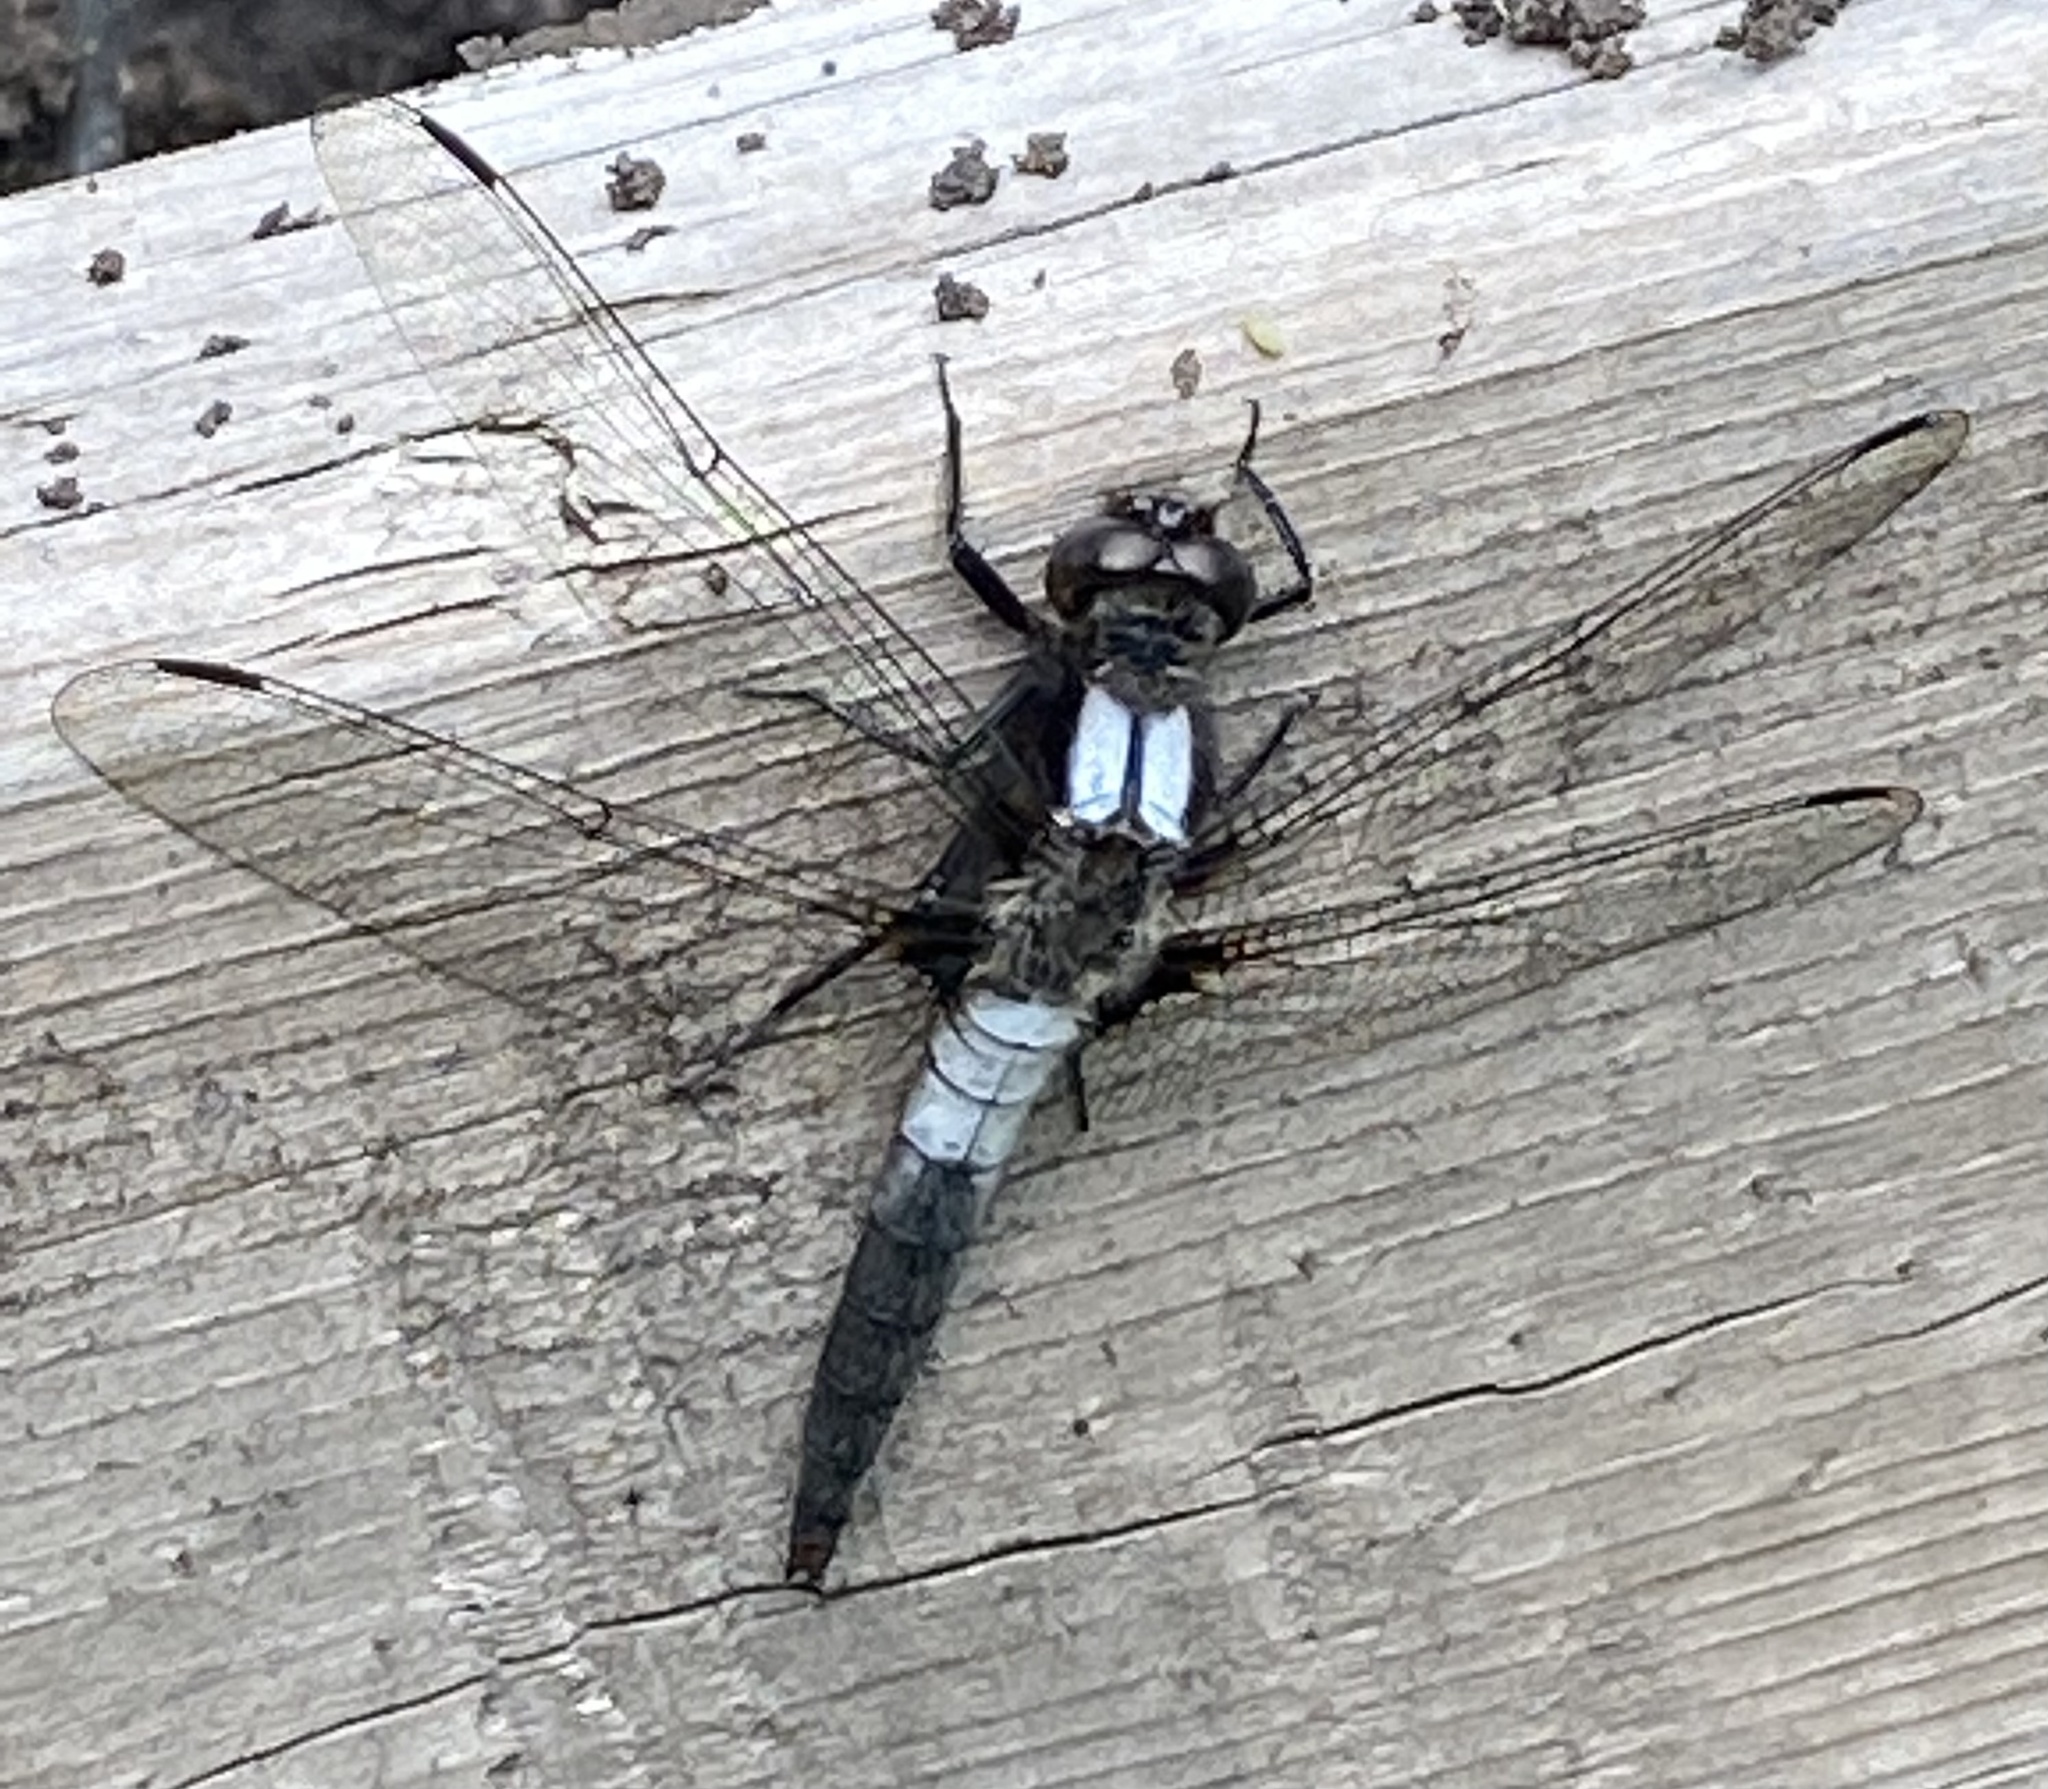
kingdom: Animalia
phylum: Arthropoda
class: Insecta
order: Odonata
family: Libellulidae
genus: Ladona
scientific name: Ladona julia
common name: Chalk-fronted corporal
